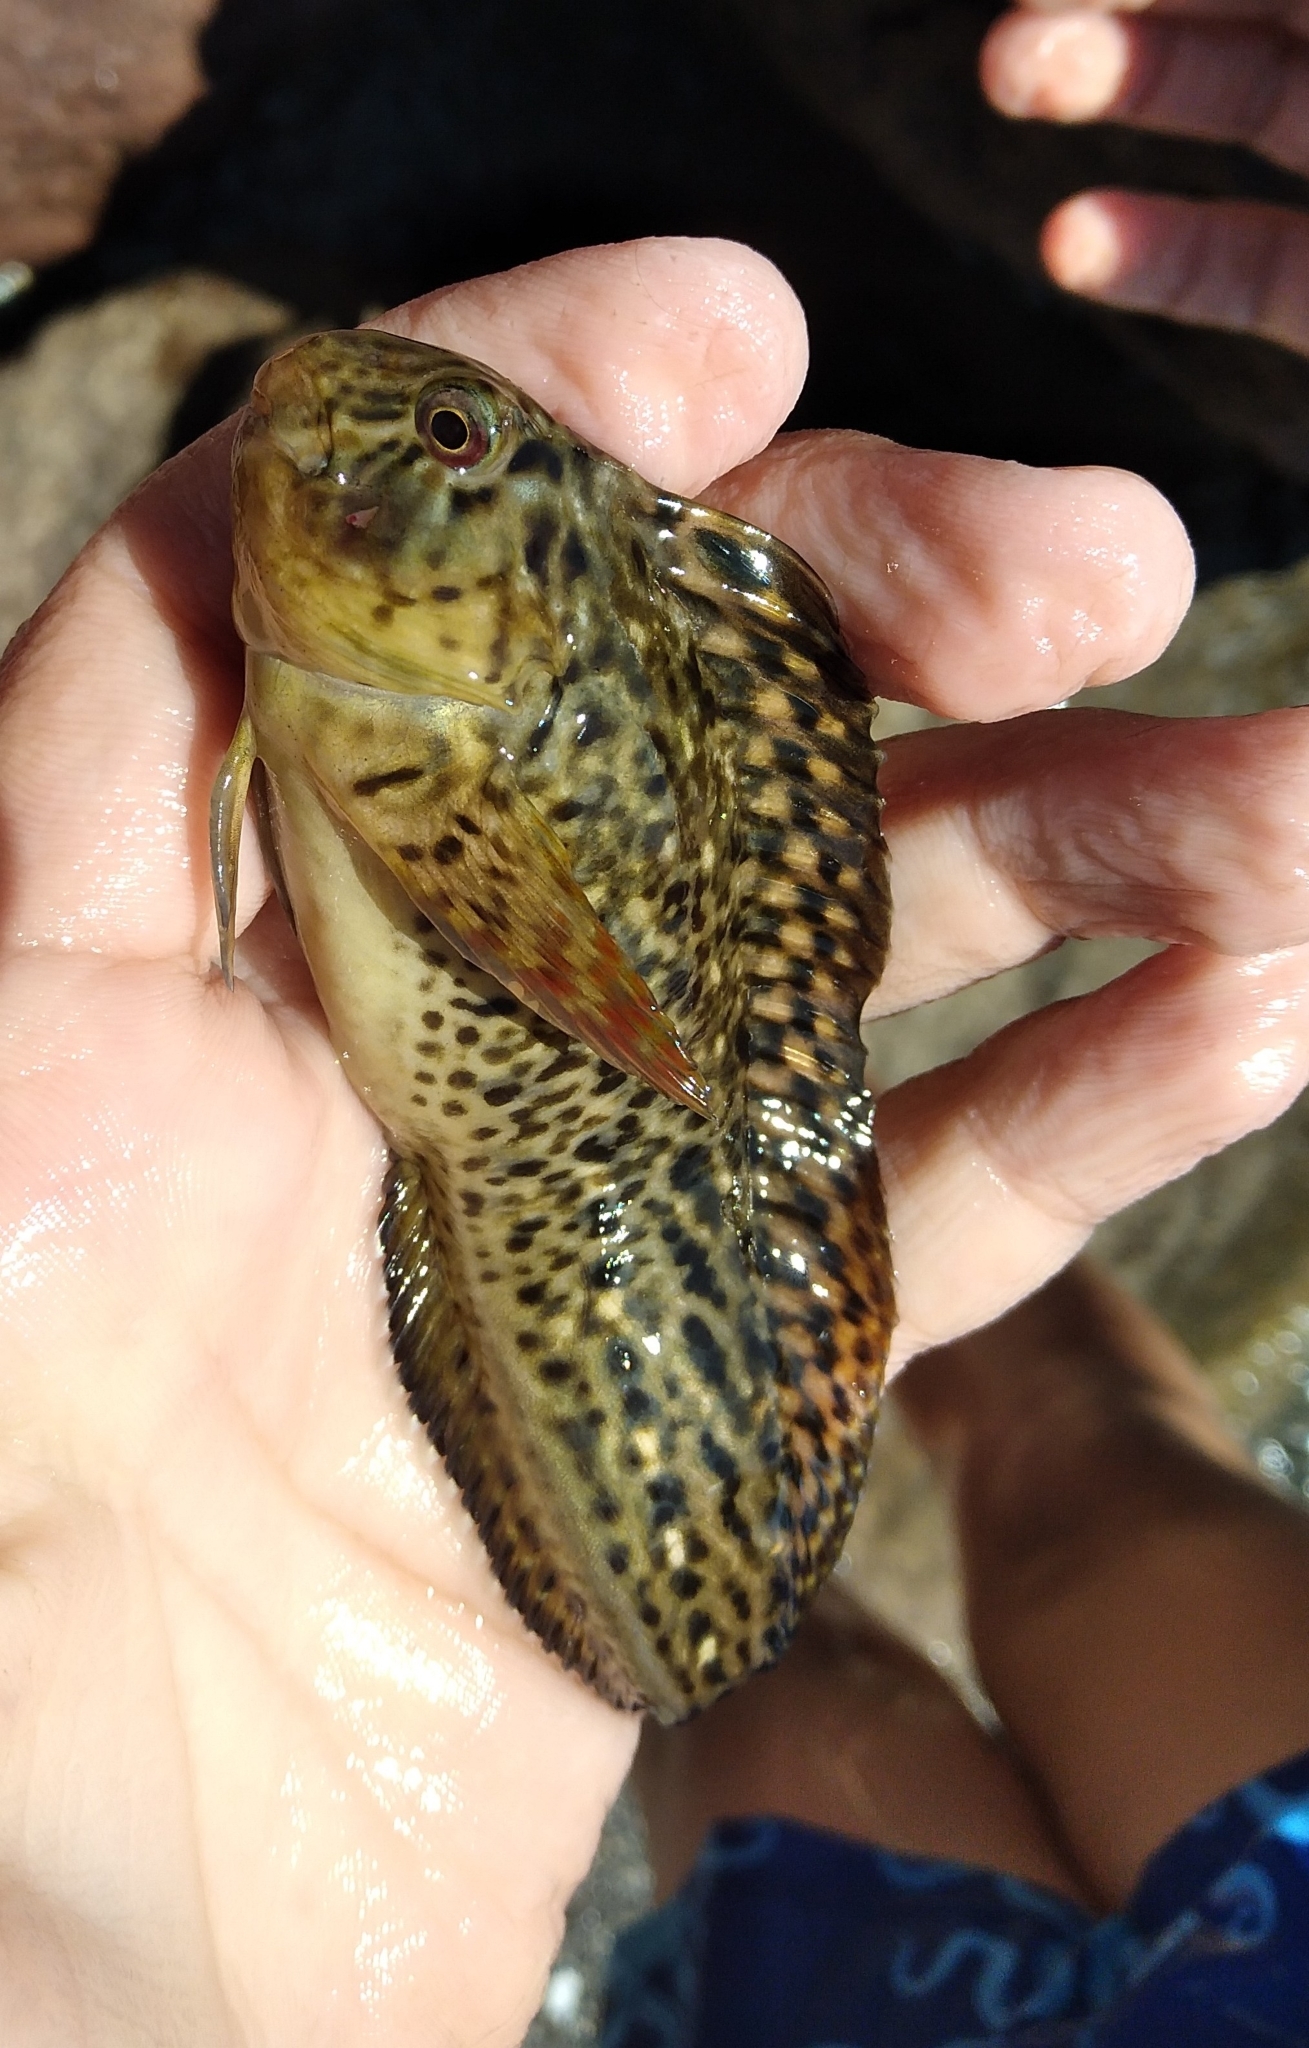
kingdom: Animalia
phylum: Chordata
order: Perciformes
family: Blenniidae
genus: Parablennius
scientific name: Parablennius sanguinolentus
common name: Black sea blenny
